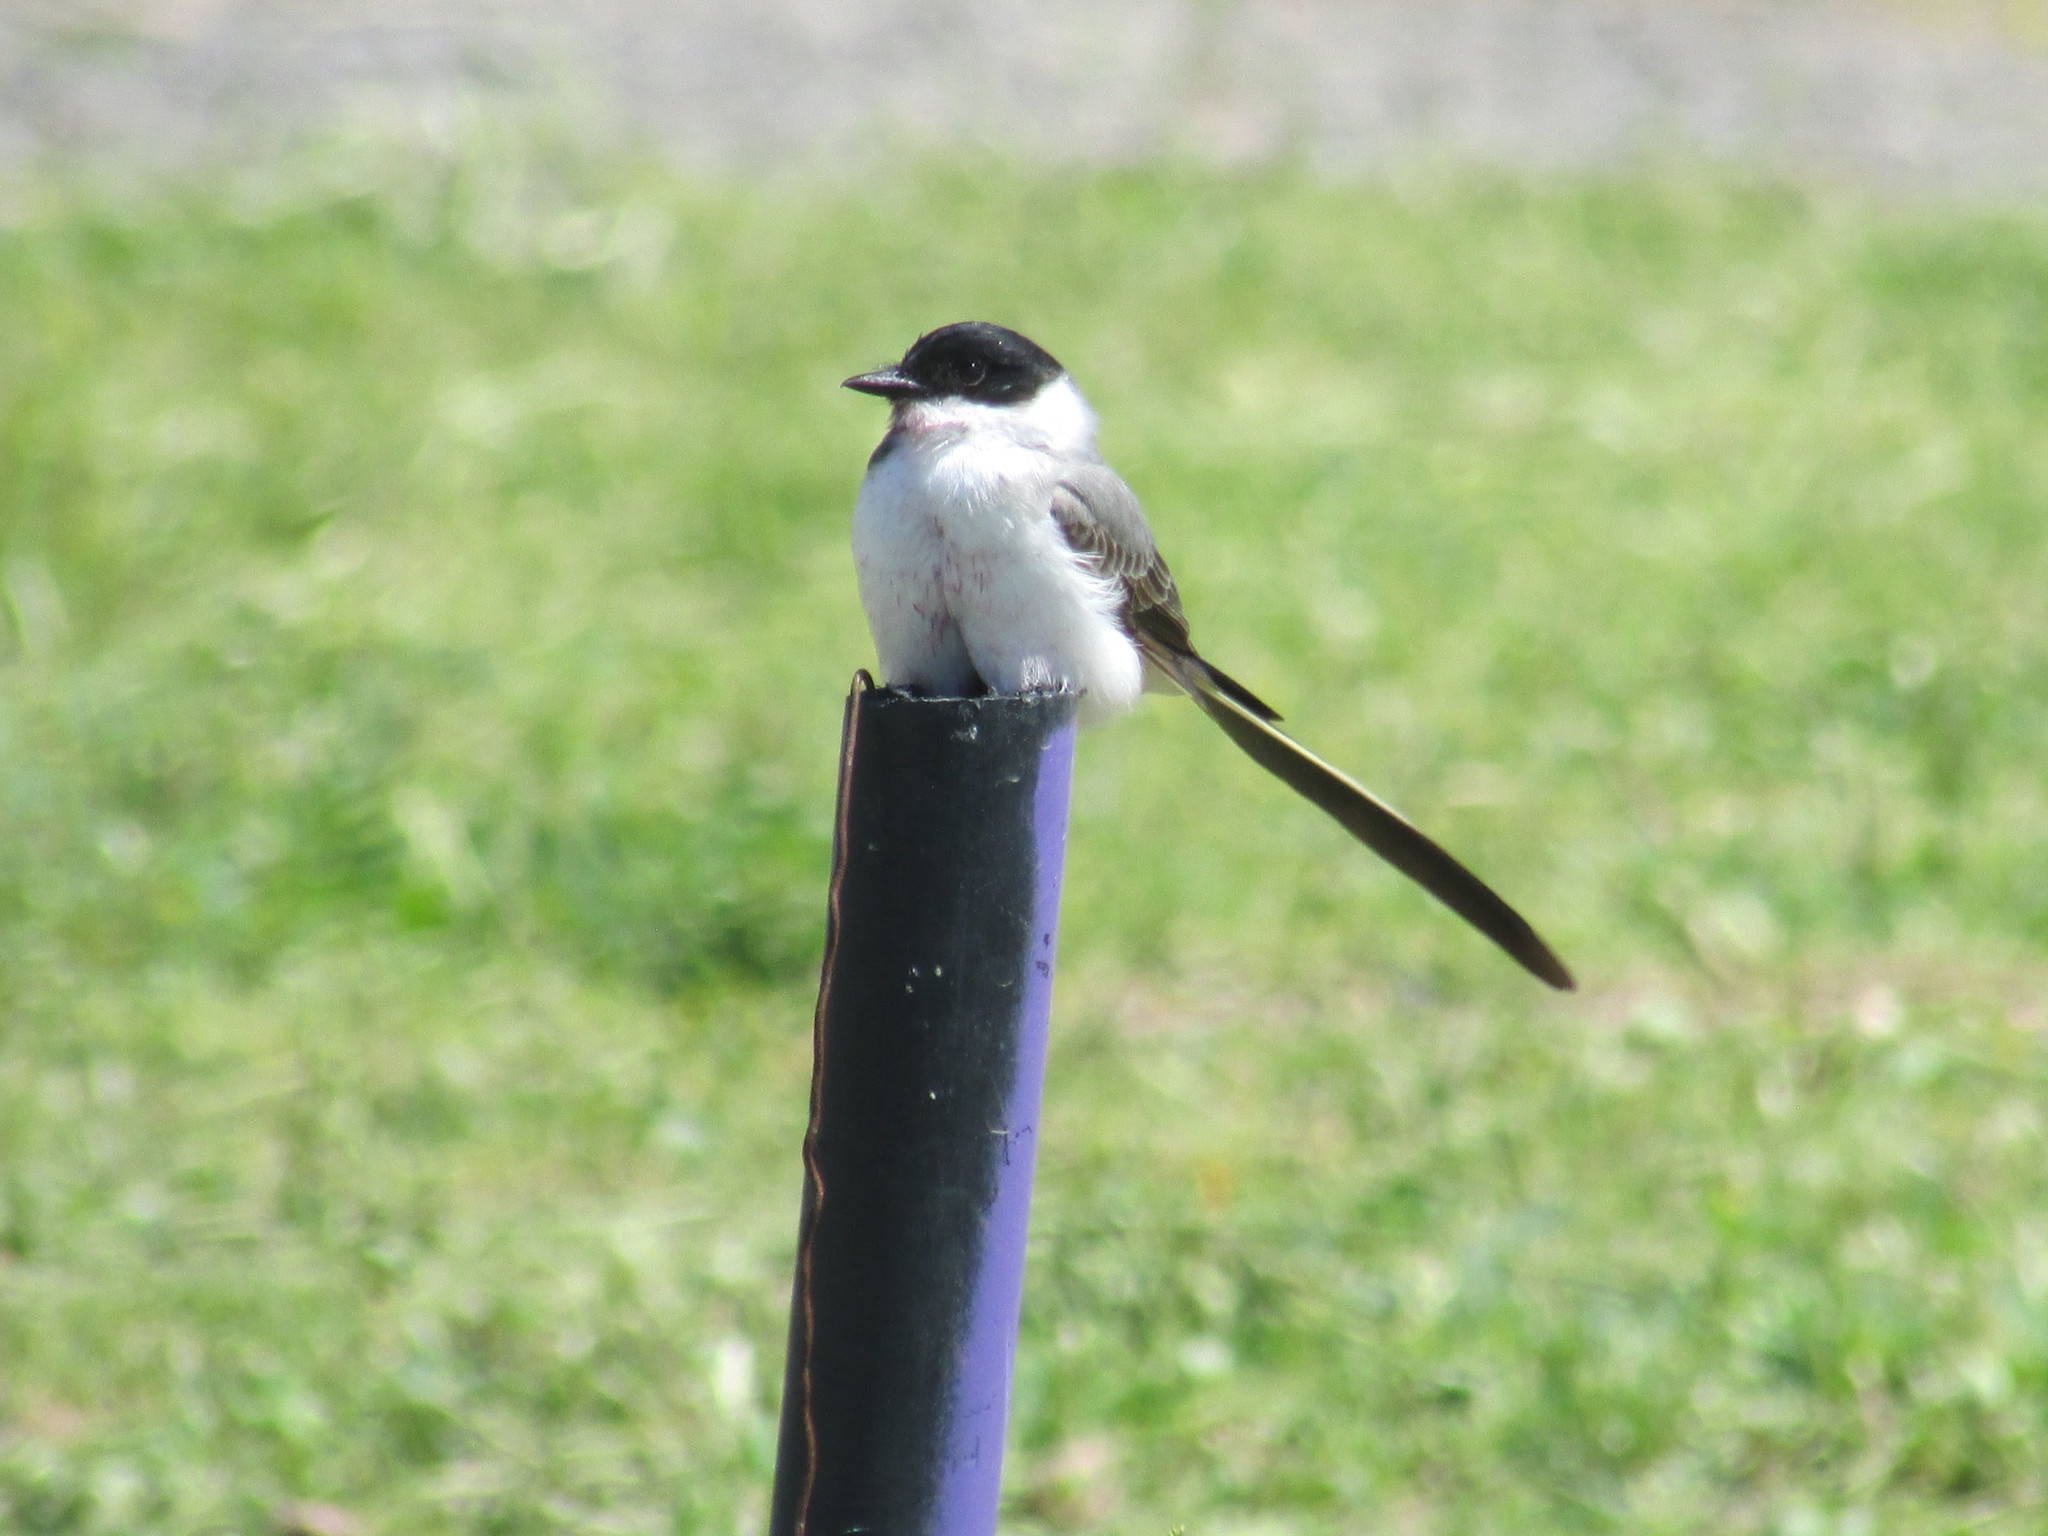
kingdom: Animalia
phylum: Chordata
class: Aves
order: Passeriformes
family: Tyrannidae
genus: Tyrannus
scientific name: Tyrannus savana
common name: Fork-tailed flycatcher
